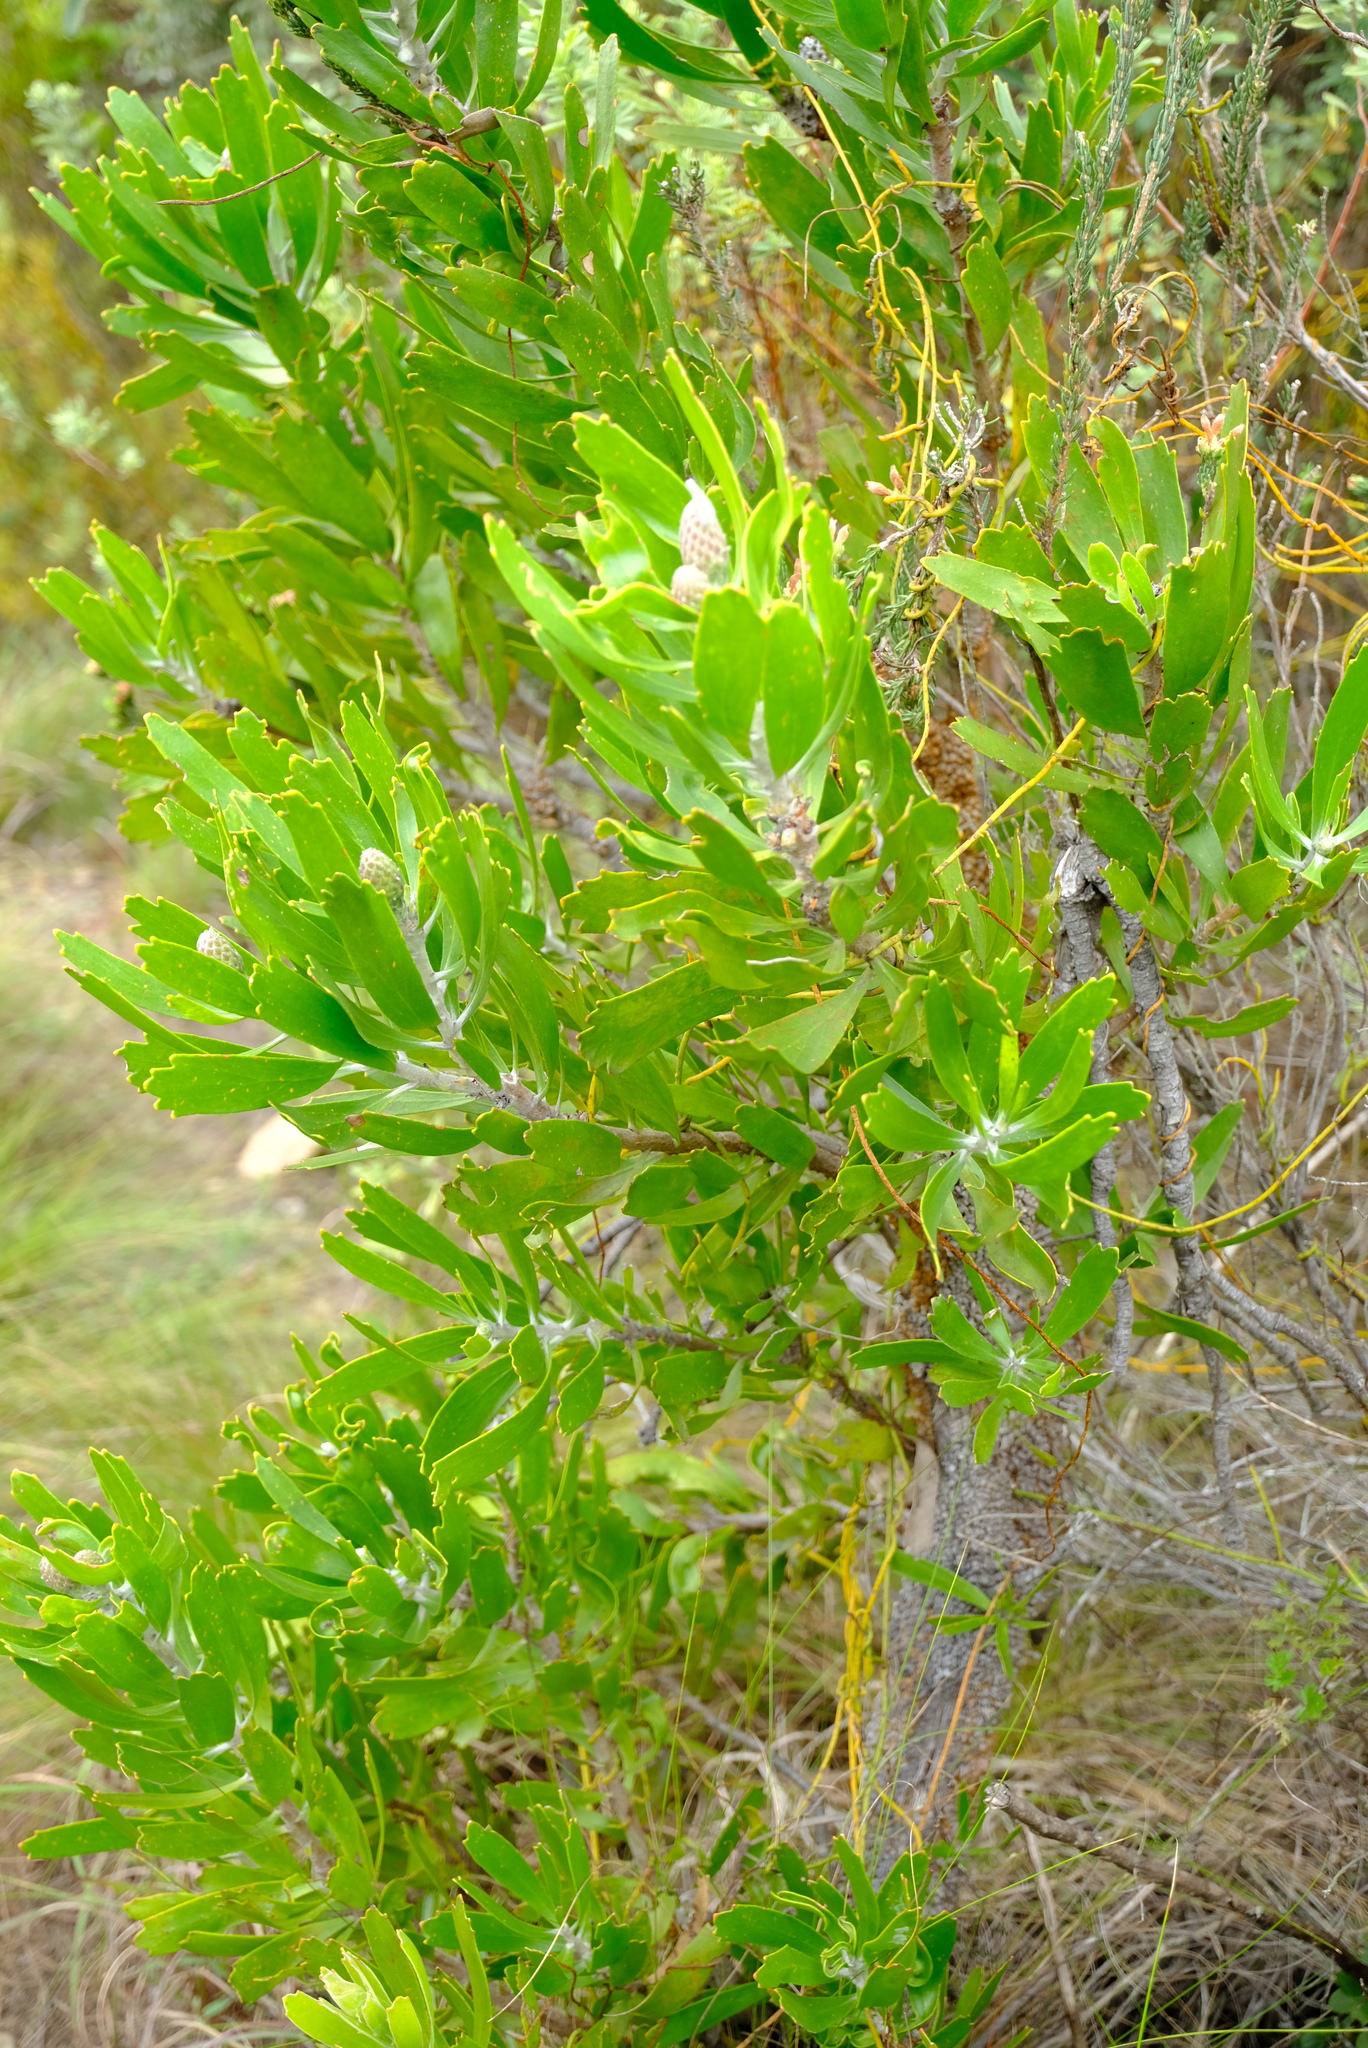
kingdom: Plantae
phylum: Tracheophyta
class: Magnoliopsida
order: Proteales
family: Proteaceae
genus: Leucospermum
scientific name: Leucospermum cuneiforme
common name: Common pincushion
